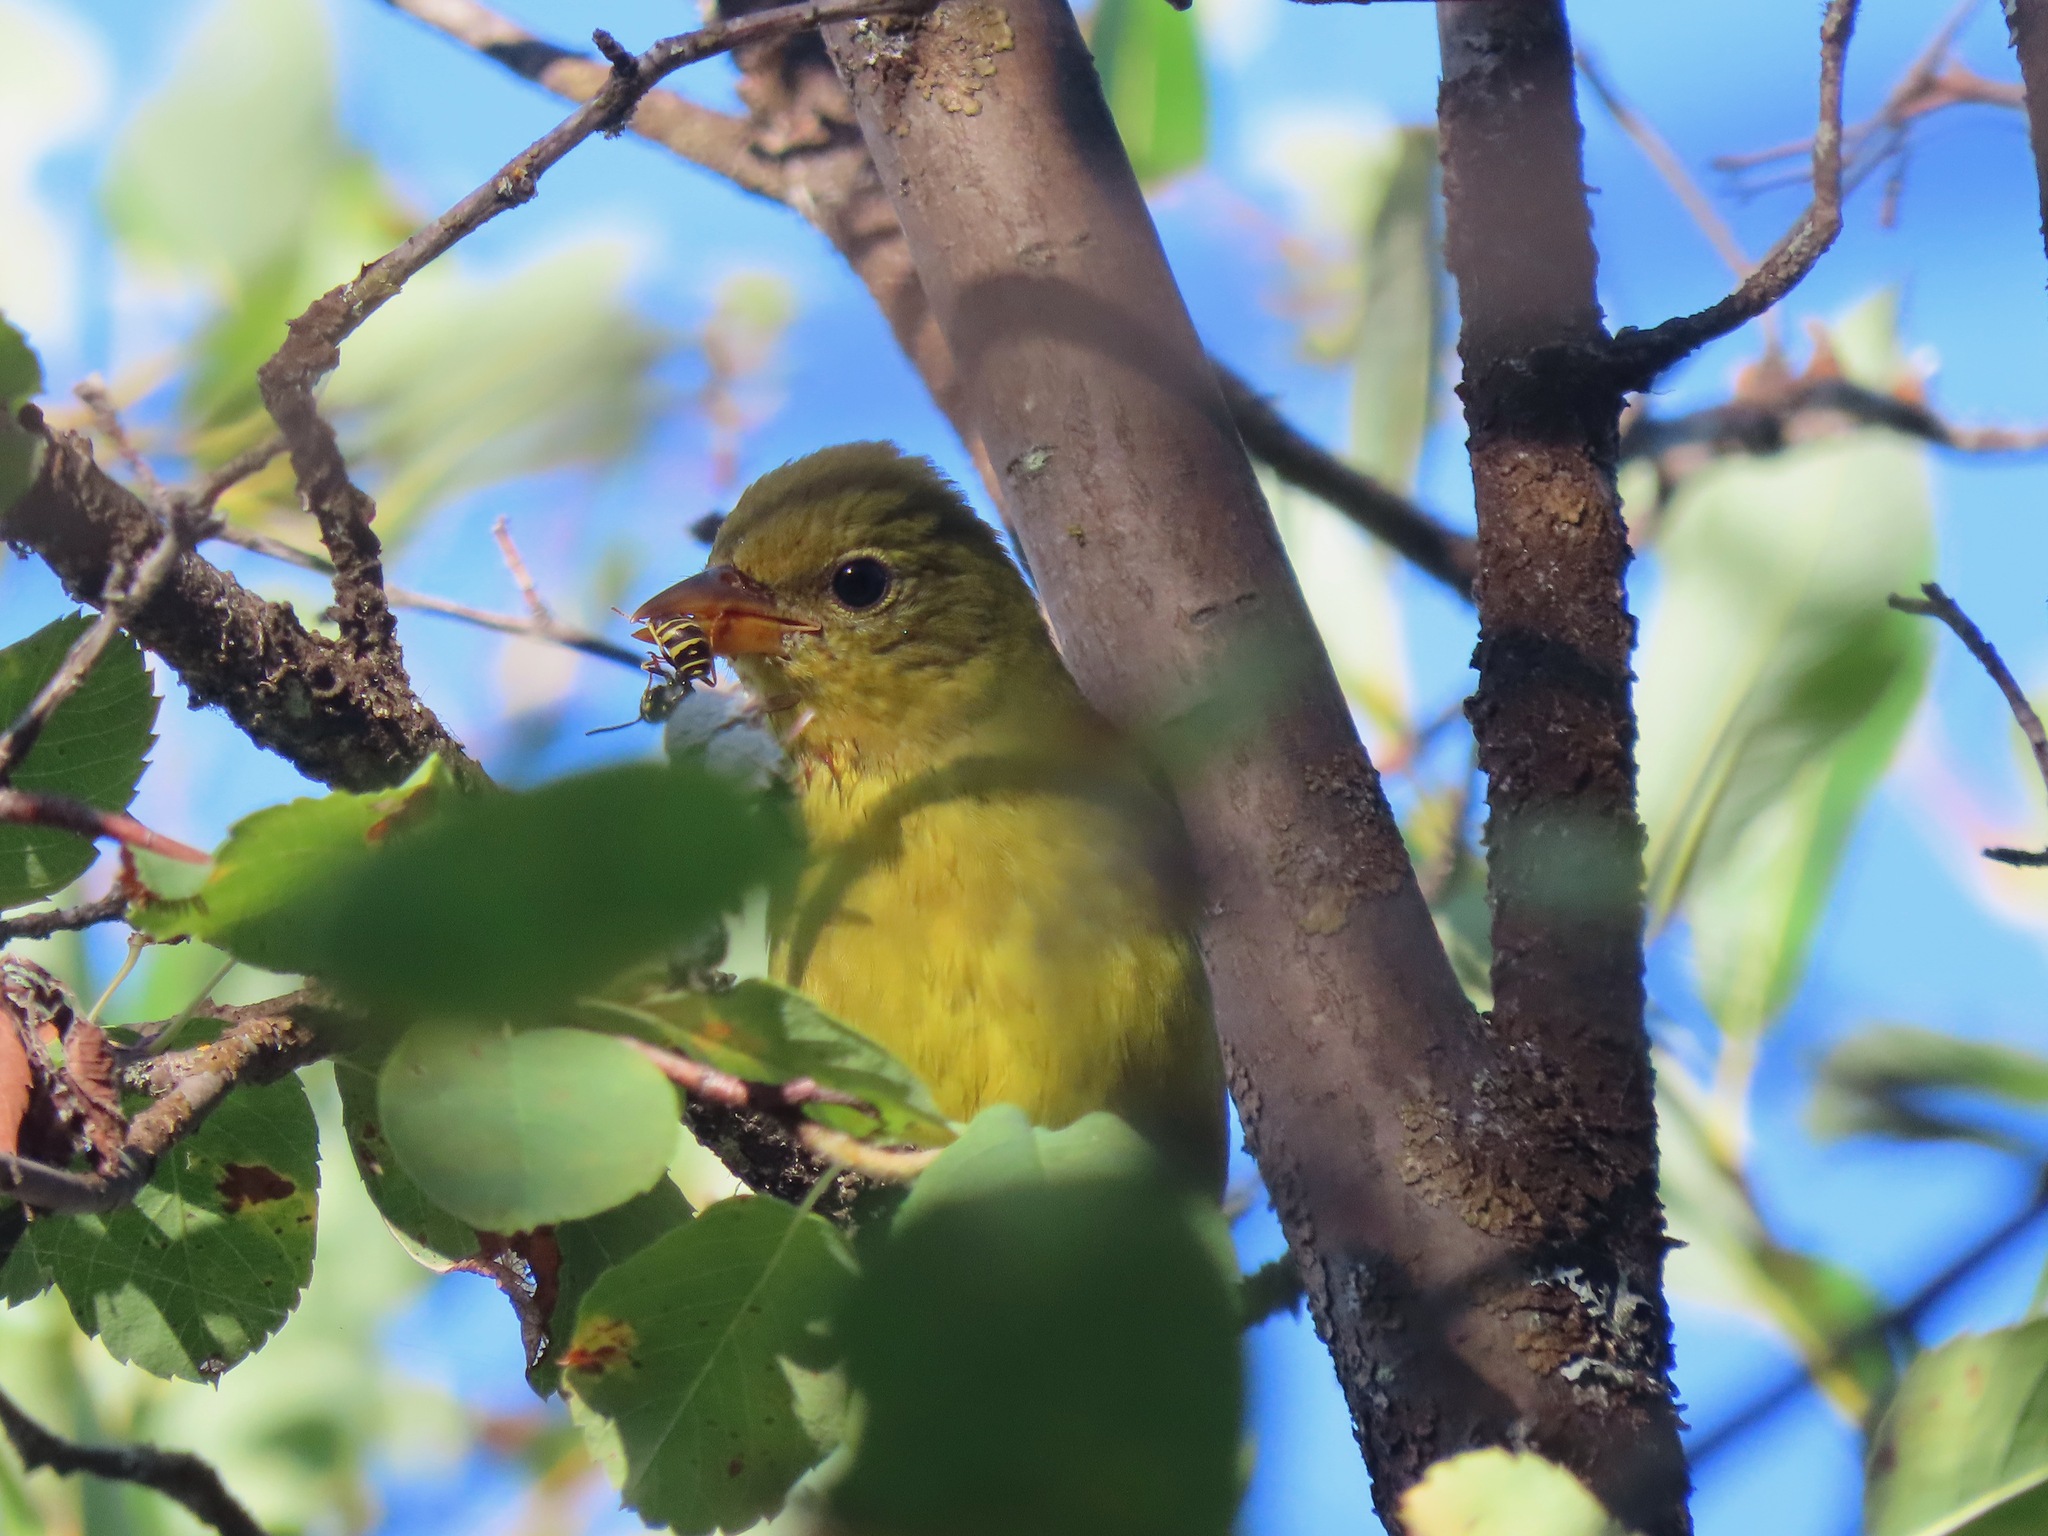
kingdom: Animalia
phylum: Chordata
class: Aves
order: Passeriformes
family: Cardinalidae
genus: Piranga
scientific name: Piranga ludoviciana
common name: Western tanager
